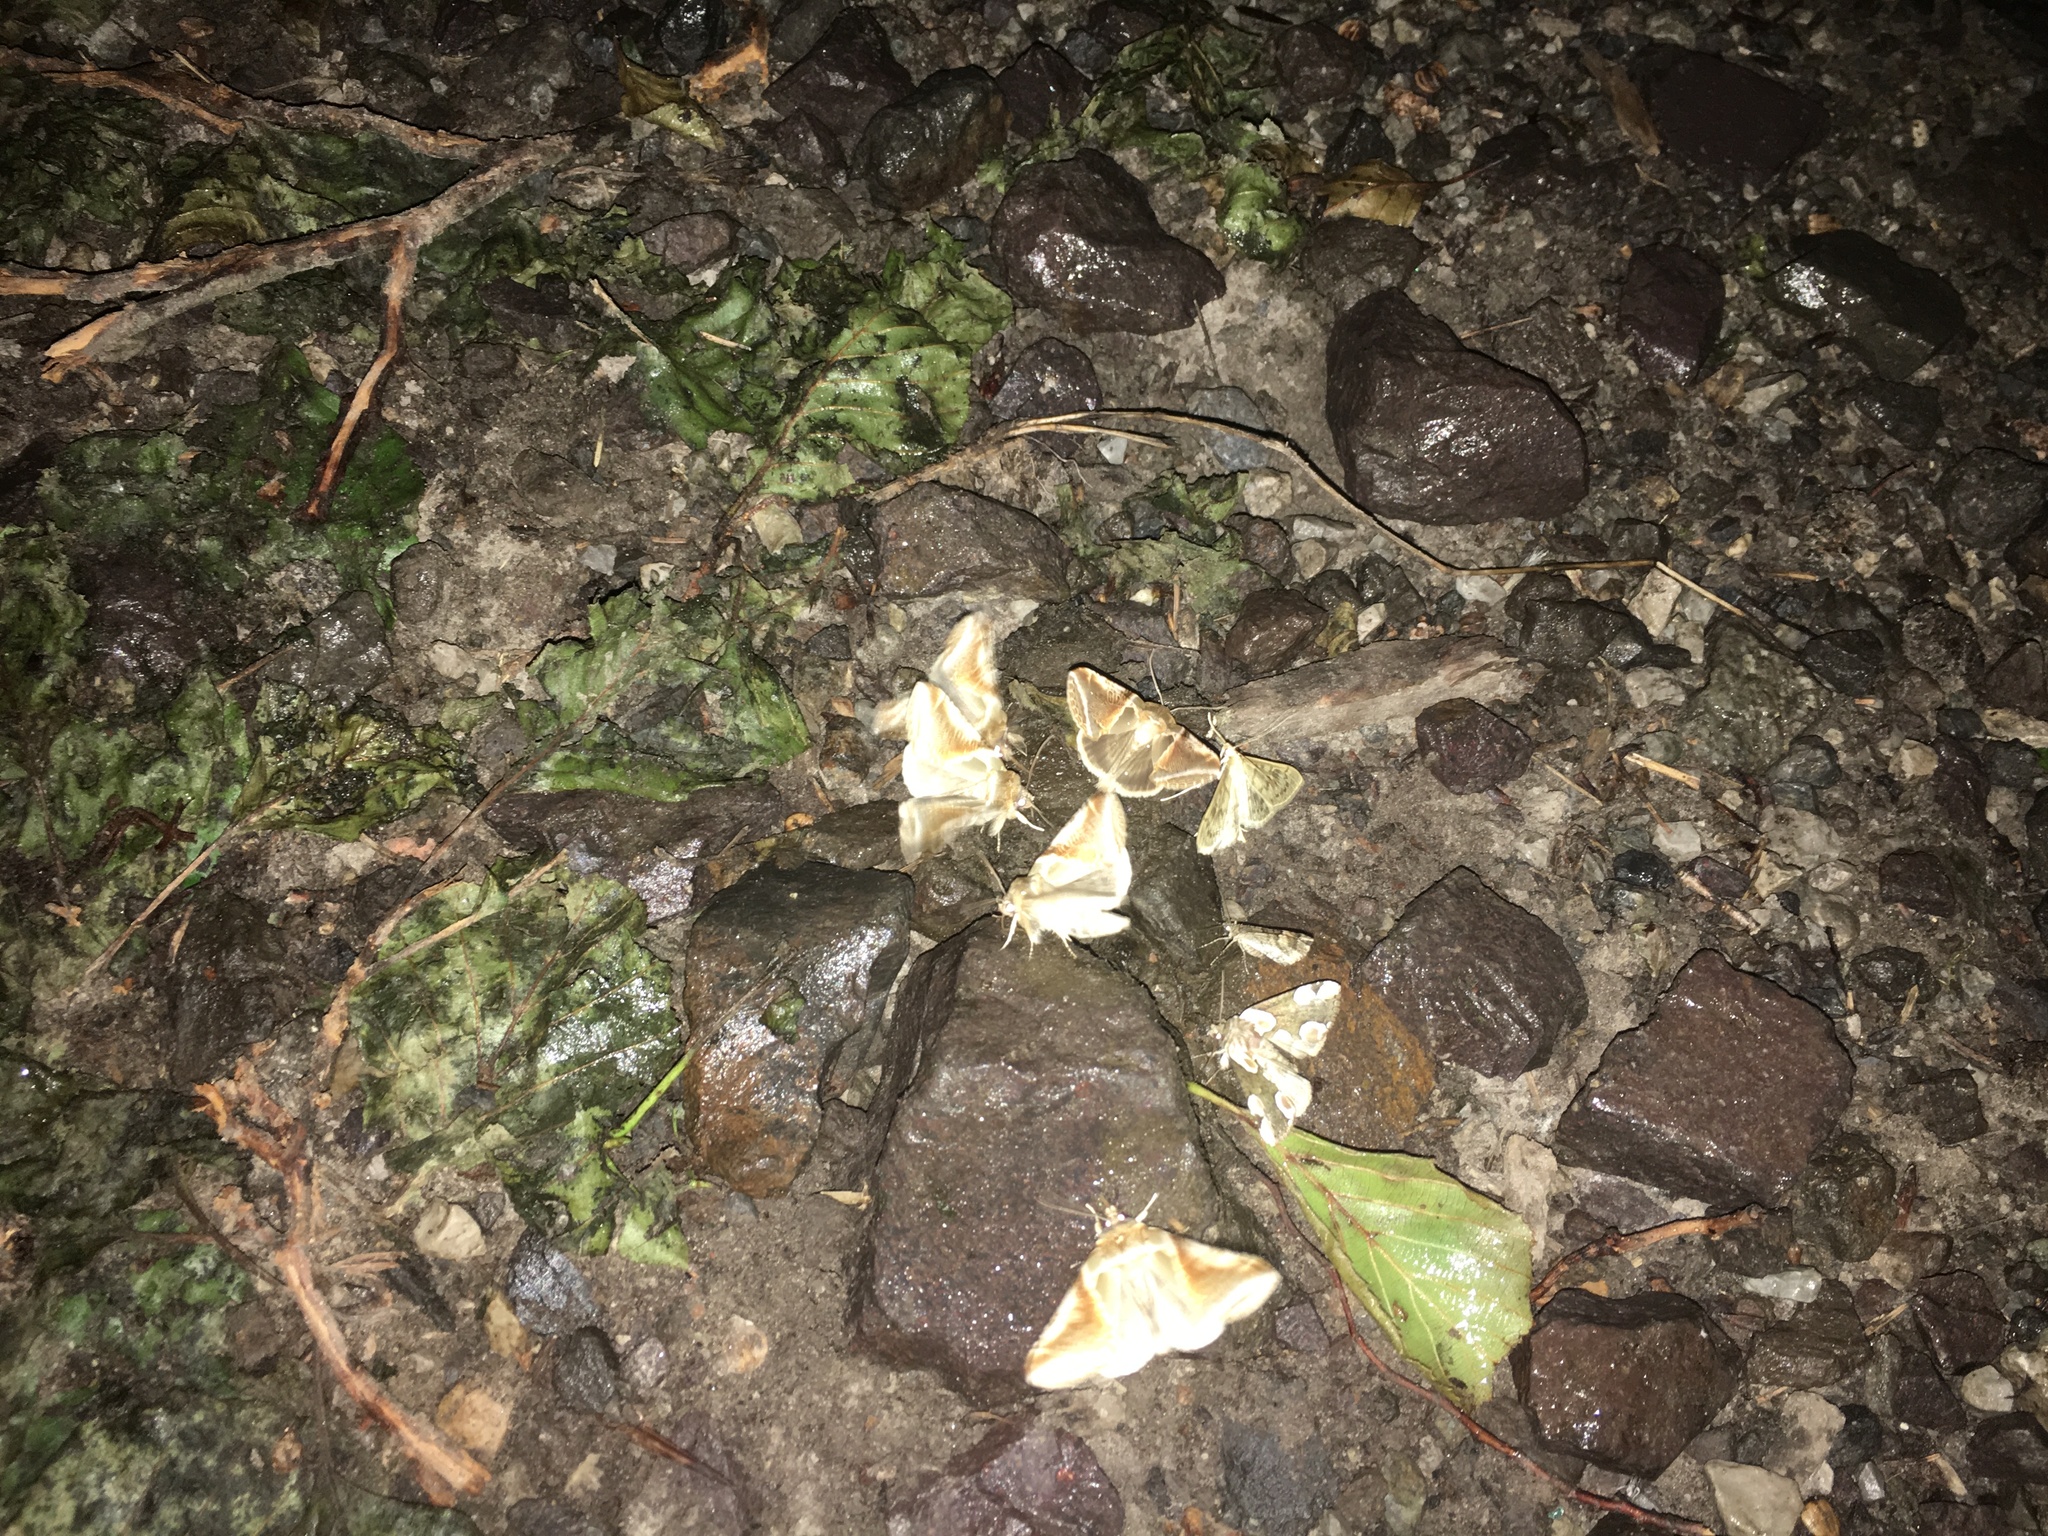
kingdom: Animalia
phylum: Arthropoda
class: Insecta
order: Lepidoptera
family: Drepanidae
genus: Habrosyne
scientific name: Habrosyne pyritoides
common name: Buff arches
